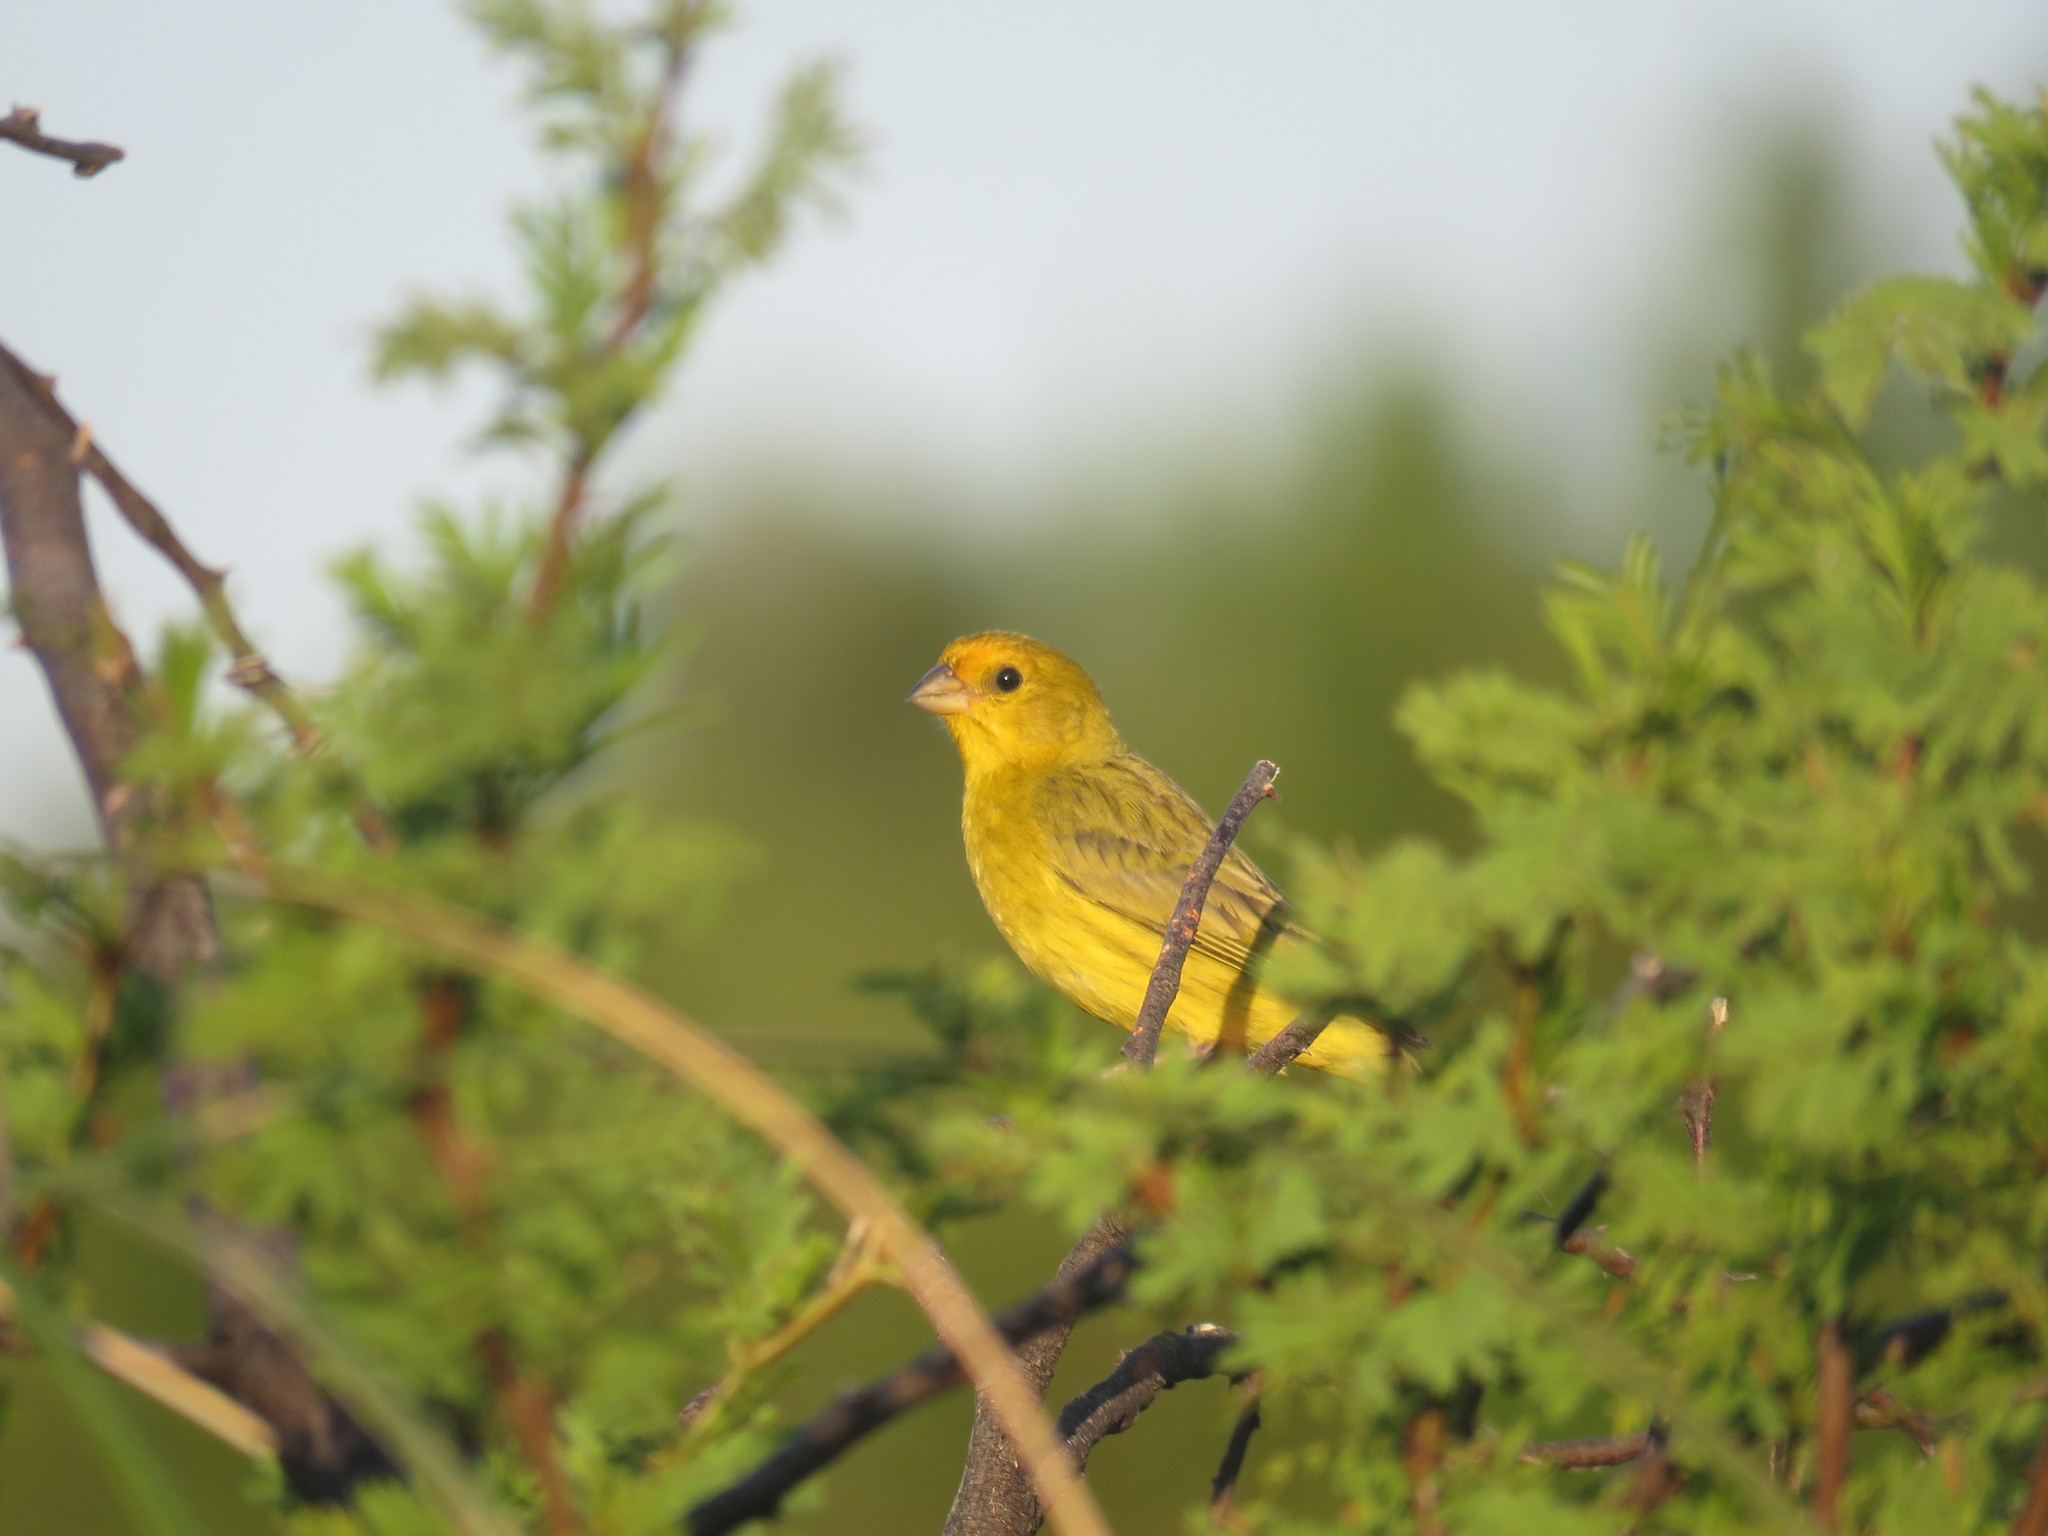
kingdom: Animalia
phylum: Chordata
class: Aves
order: Passeriformes
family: Thraupidae
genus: Sicalis
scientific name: Sicalis flaveola
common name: Saffron finch
